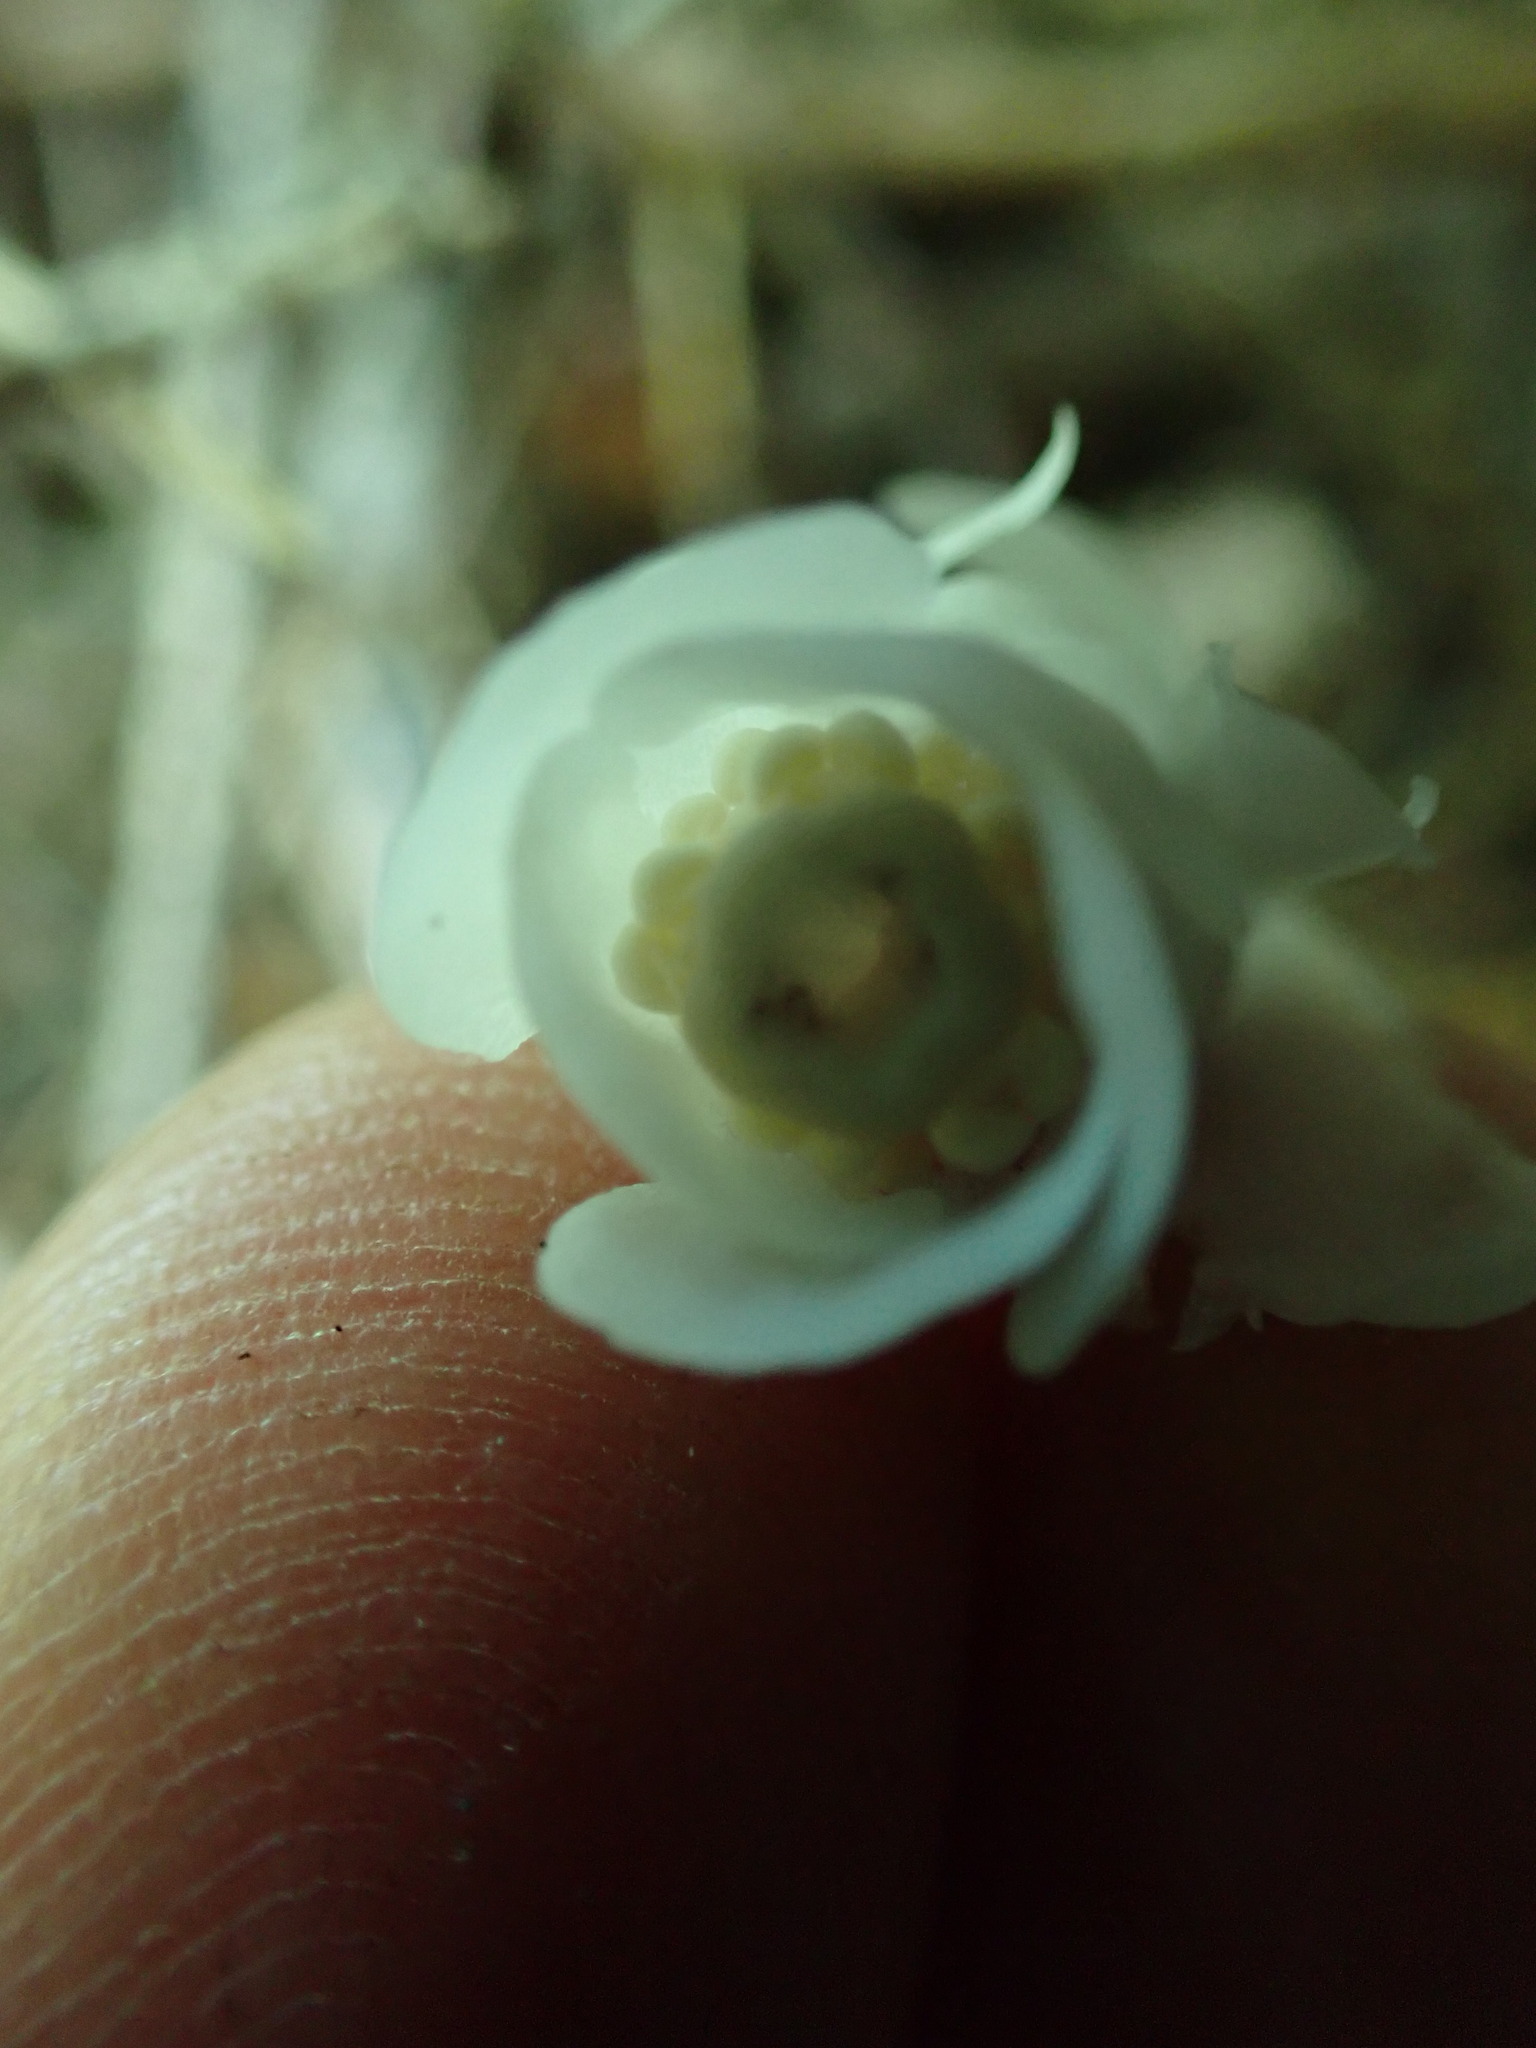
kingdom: Plantae
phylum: Tracheophyta
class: Magnoliopsida
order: Ericales
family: Ericaceae
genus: Monotropa
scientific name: Monotropa uniflora
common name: Convulsion root
